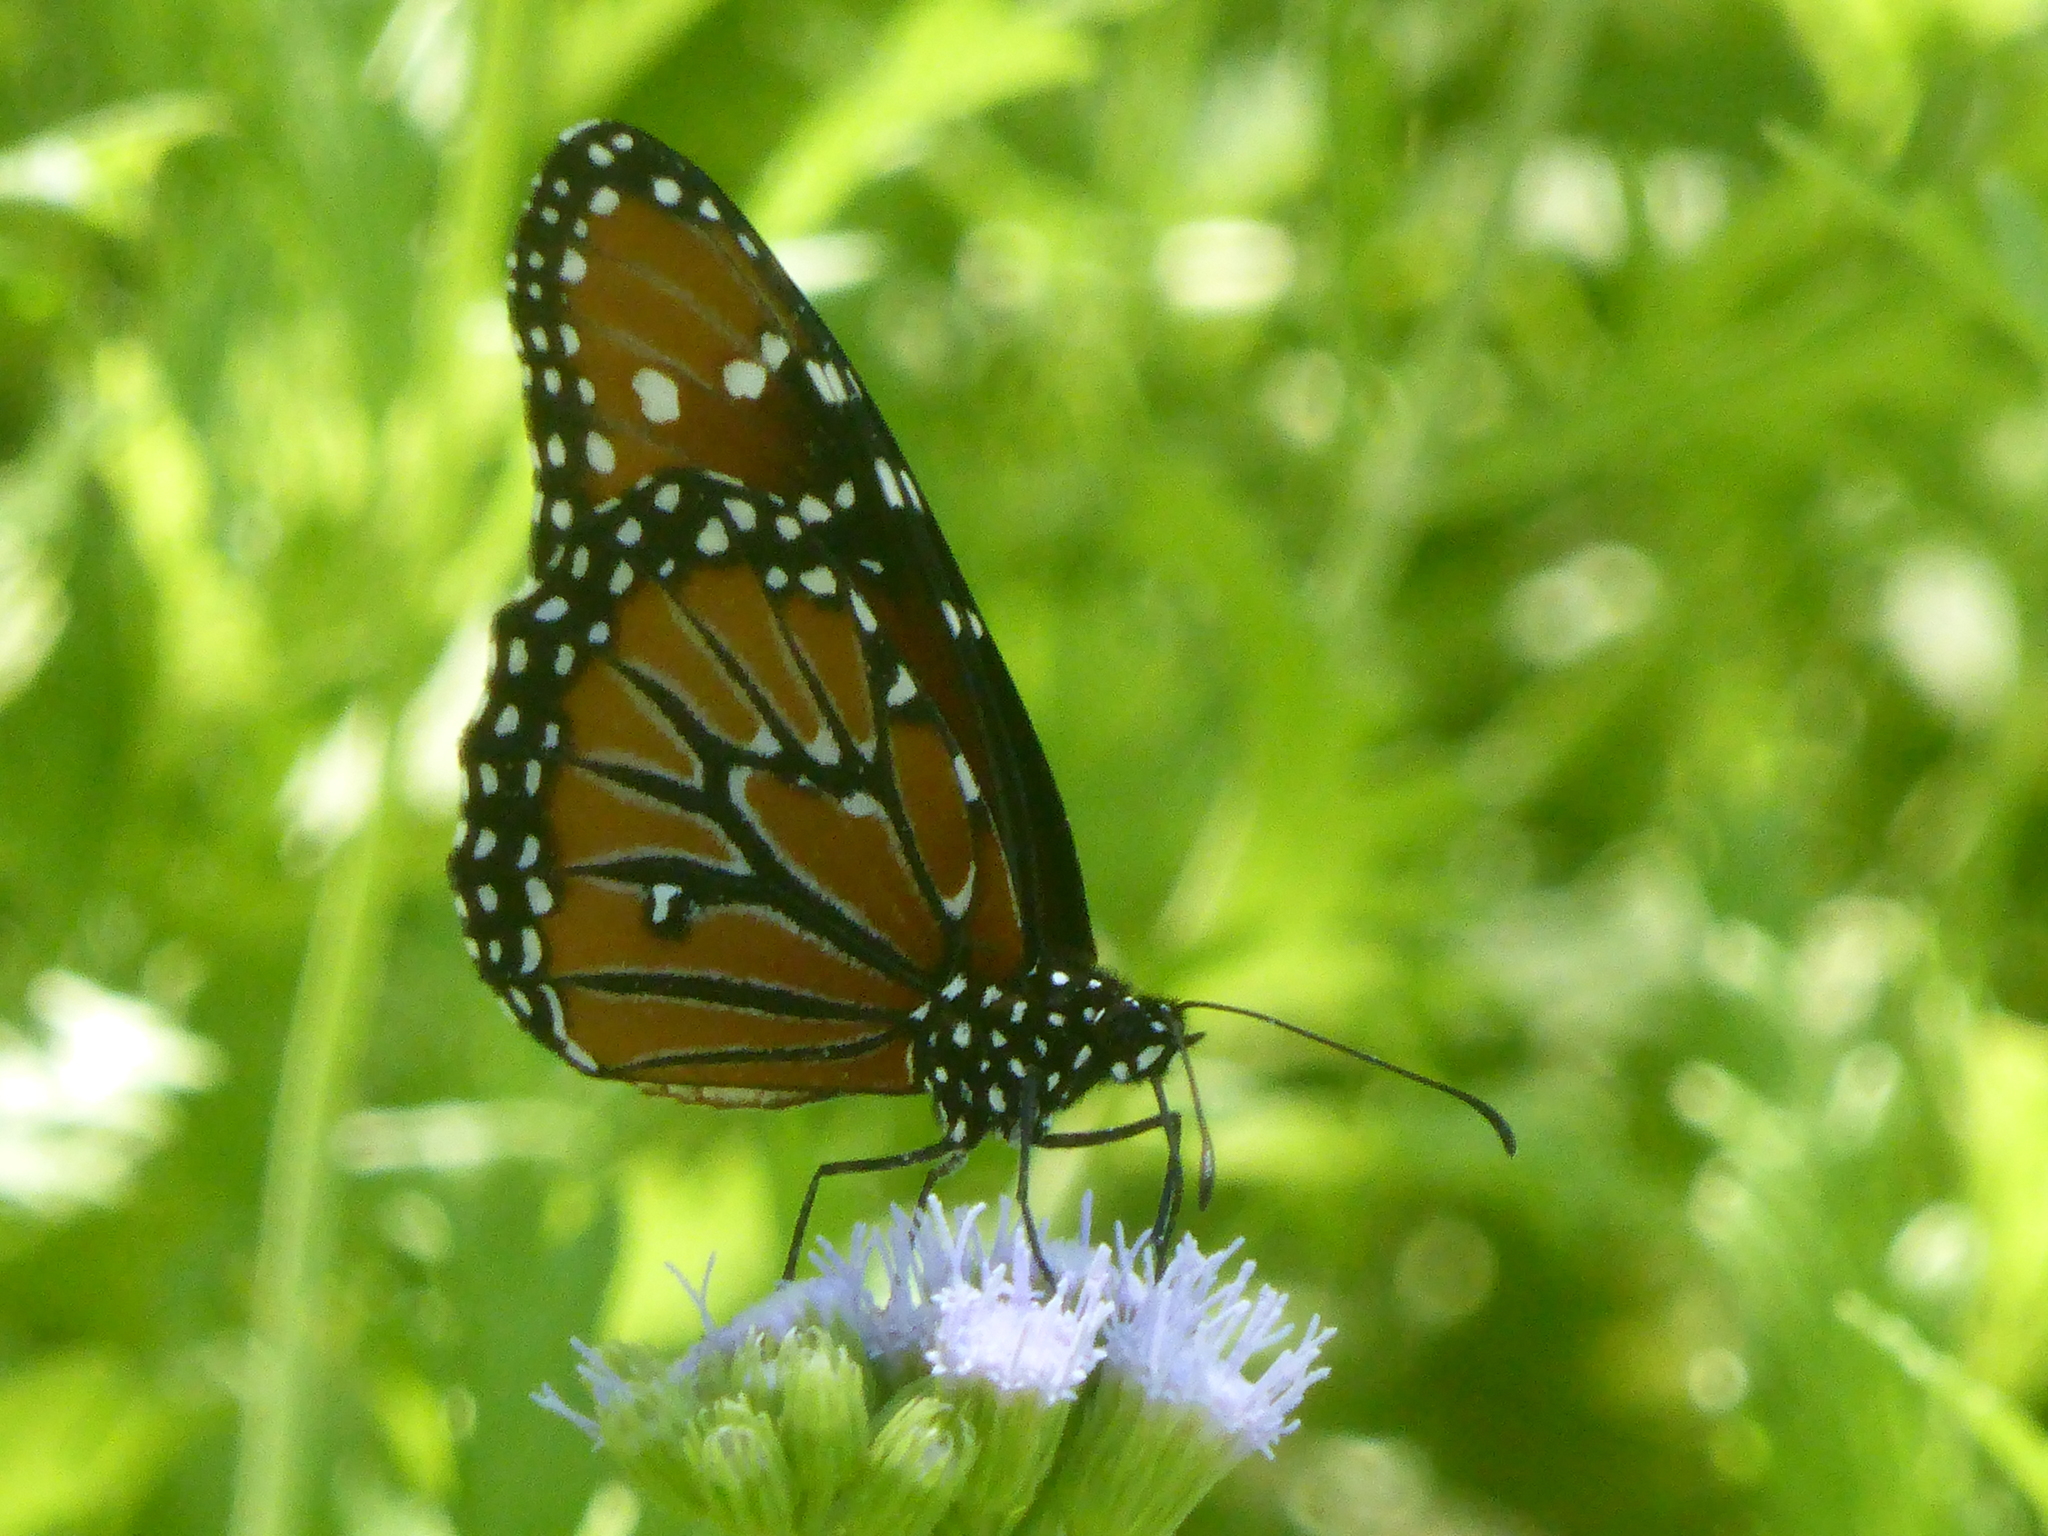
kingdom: Animalia
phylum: Arthropoda
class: Insecta
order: Lepidoptera
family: Nymphalidae
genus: Danaus
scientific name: Danaus gilippus
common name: Queen
